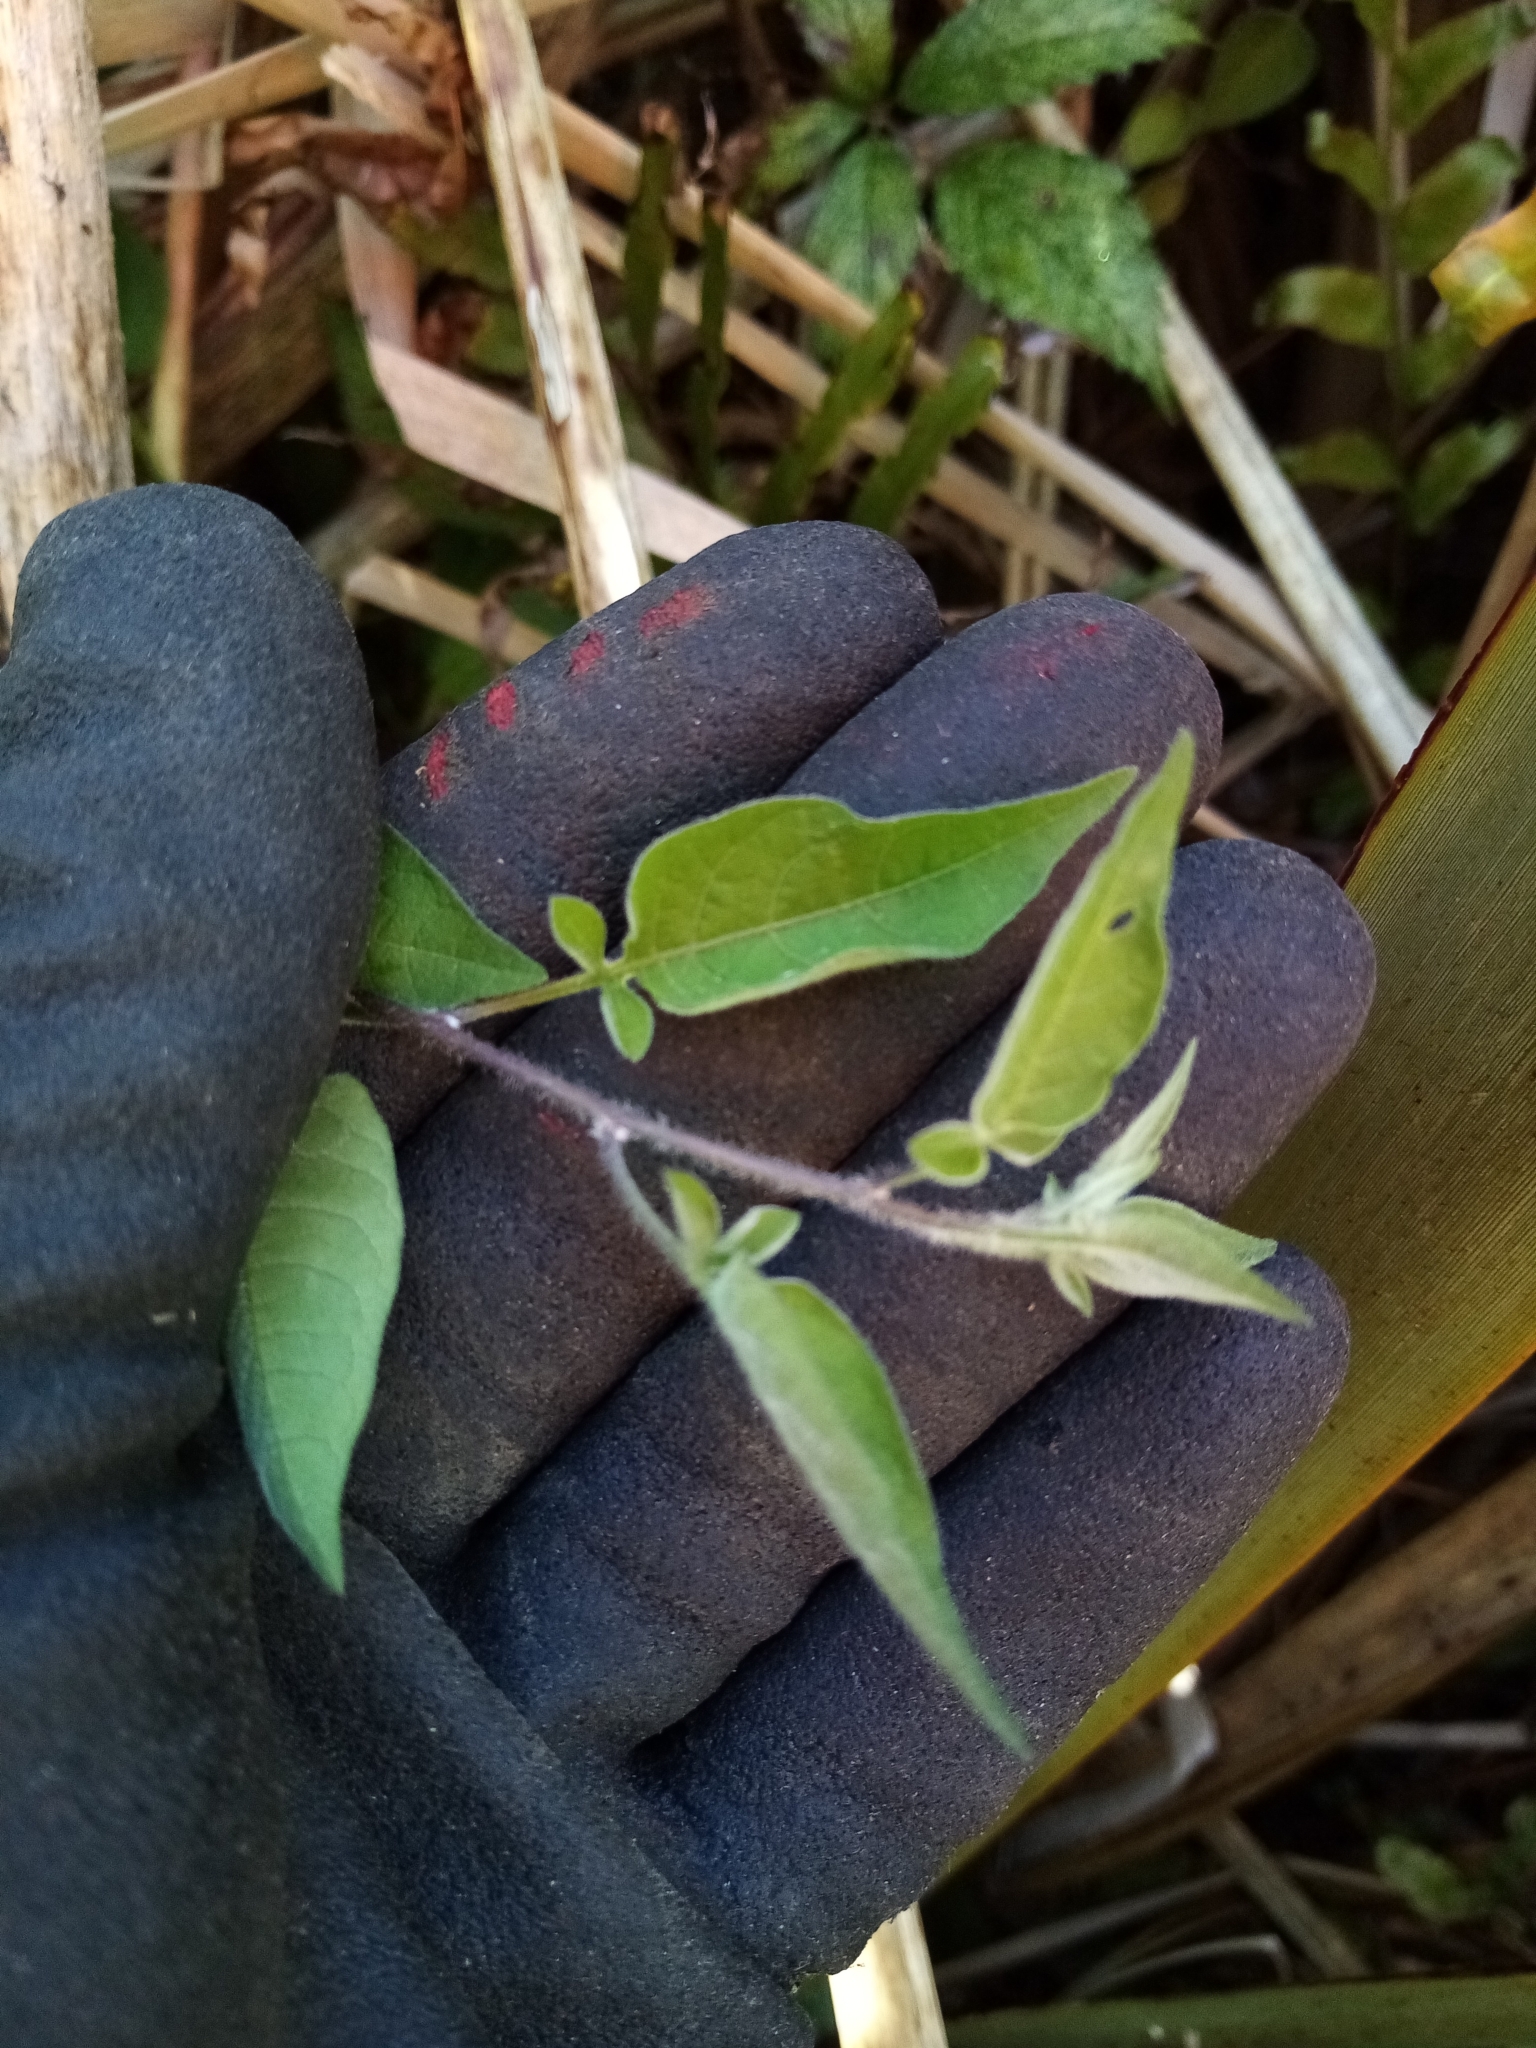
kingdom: Plantae
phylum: Tracheophyta
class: Magnoliopsida
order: Solanales
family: Solanaceae
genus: Solanum
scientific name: Solanum dulcamara
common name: Climbing nightshade
